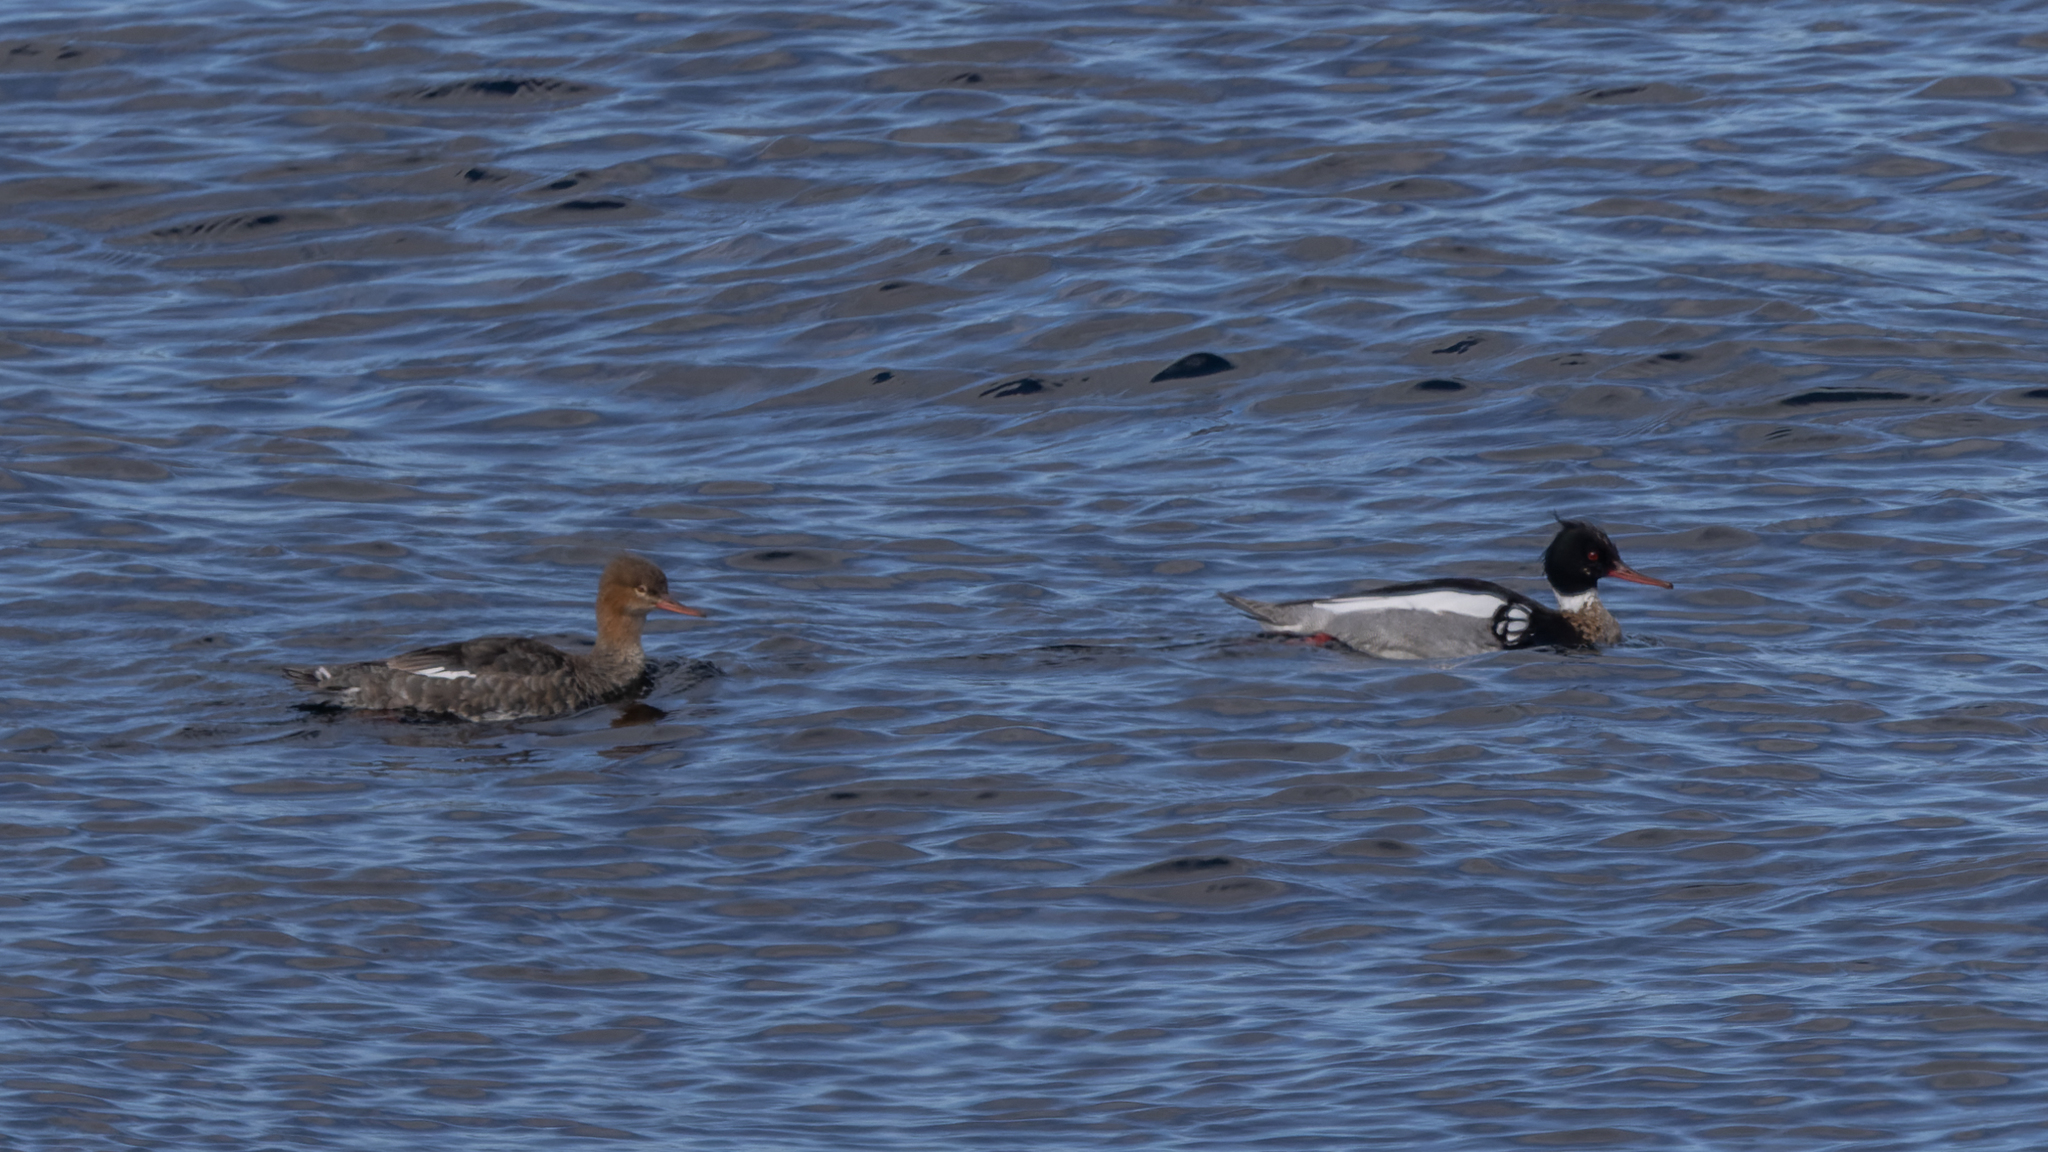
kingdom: Animalia
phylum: Chordata
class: Aves
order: Anseriformes
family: Anatidae
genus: Mergus
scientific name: Mergus serrator
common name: Red-breasted merganser
